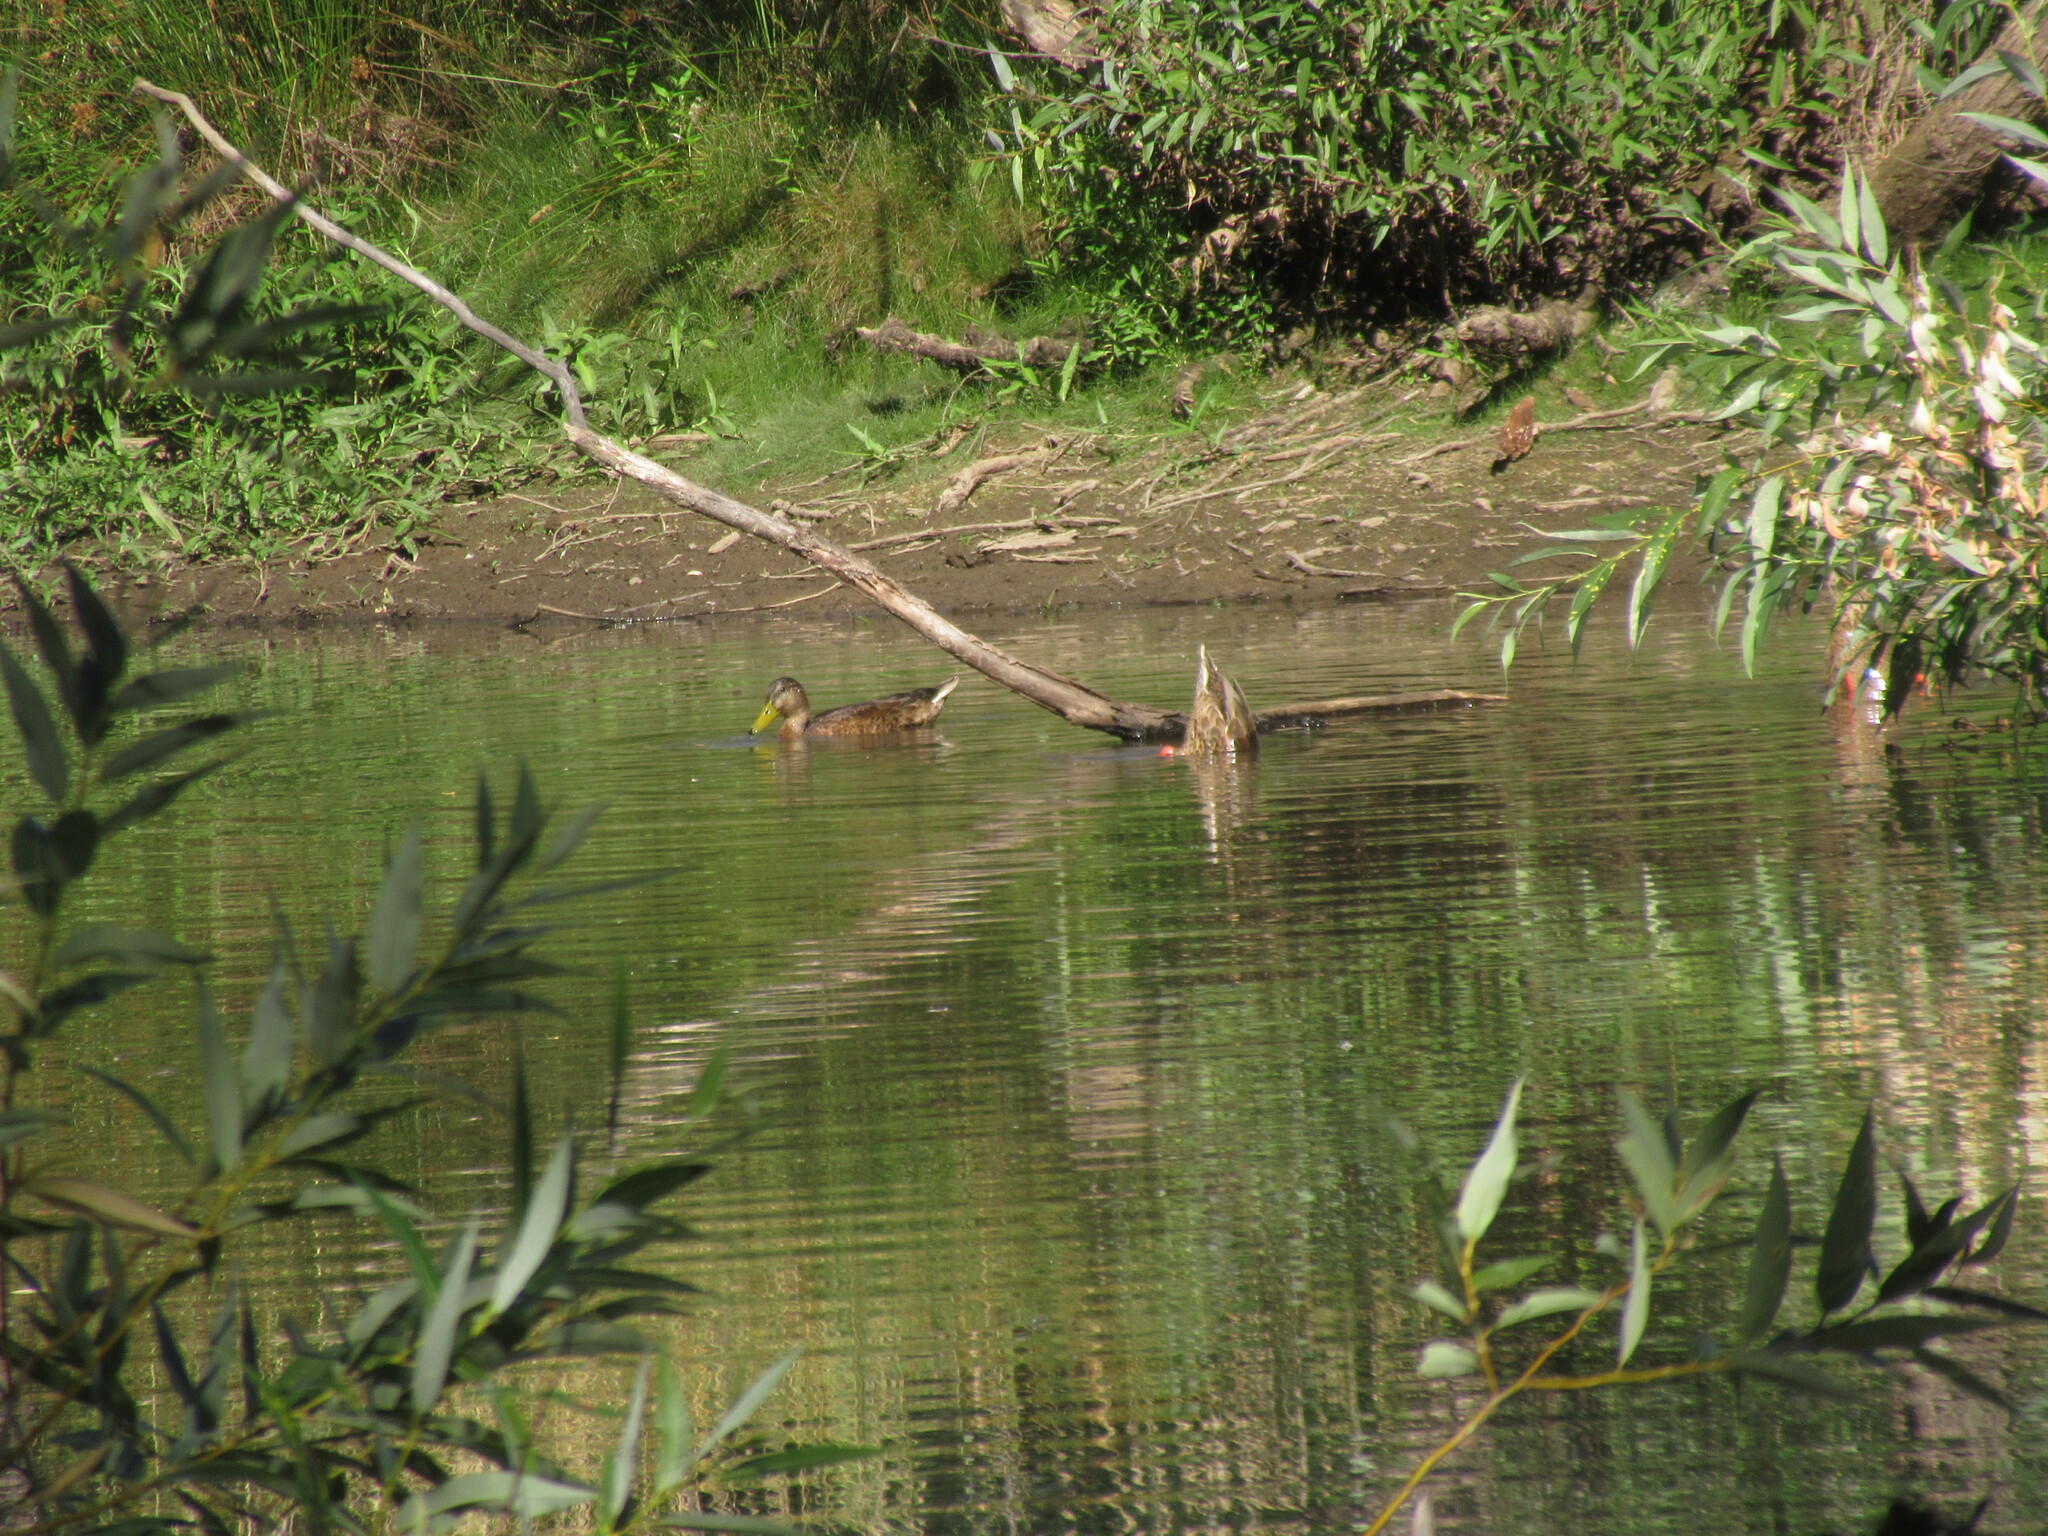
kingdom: Animalia
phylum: Chordata
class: Aves
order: Anseriformes
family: Anatidae
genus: Anas
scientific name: Anas platyrhynchos
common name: Mallard
